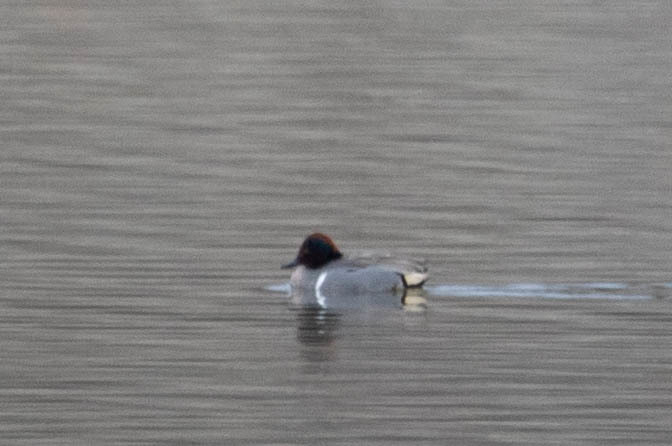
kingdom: Animalia
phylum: Chordata
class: Aves
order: Anseriformes
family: Anatidae
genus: Anas
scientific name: Anas carolinensis
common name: Green-winged teal
